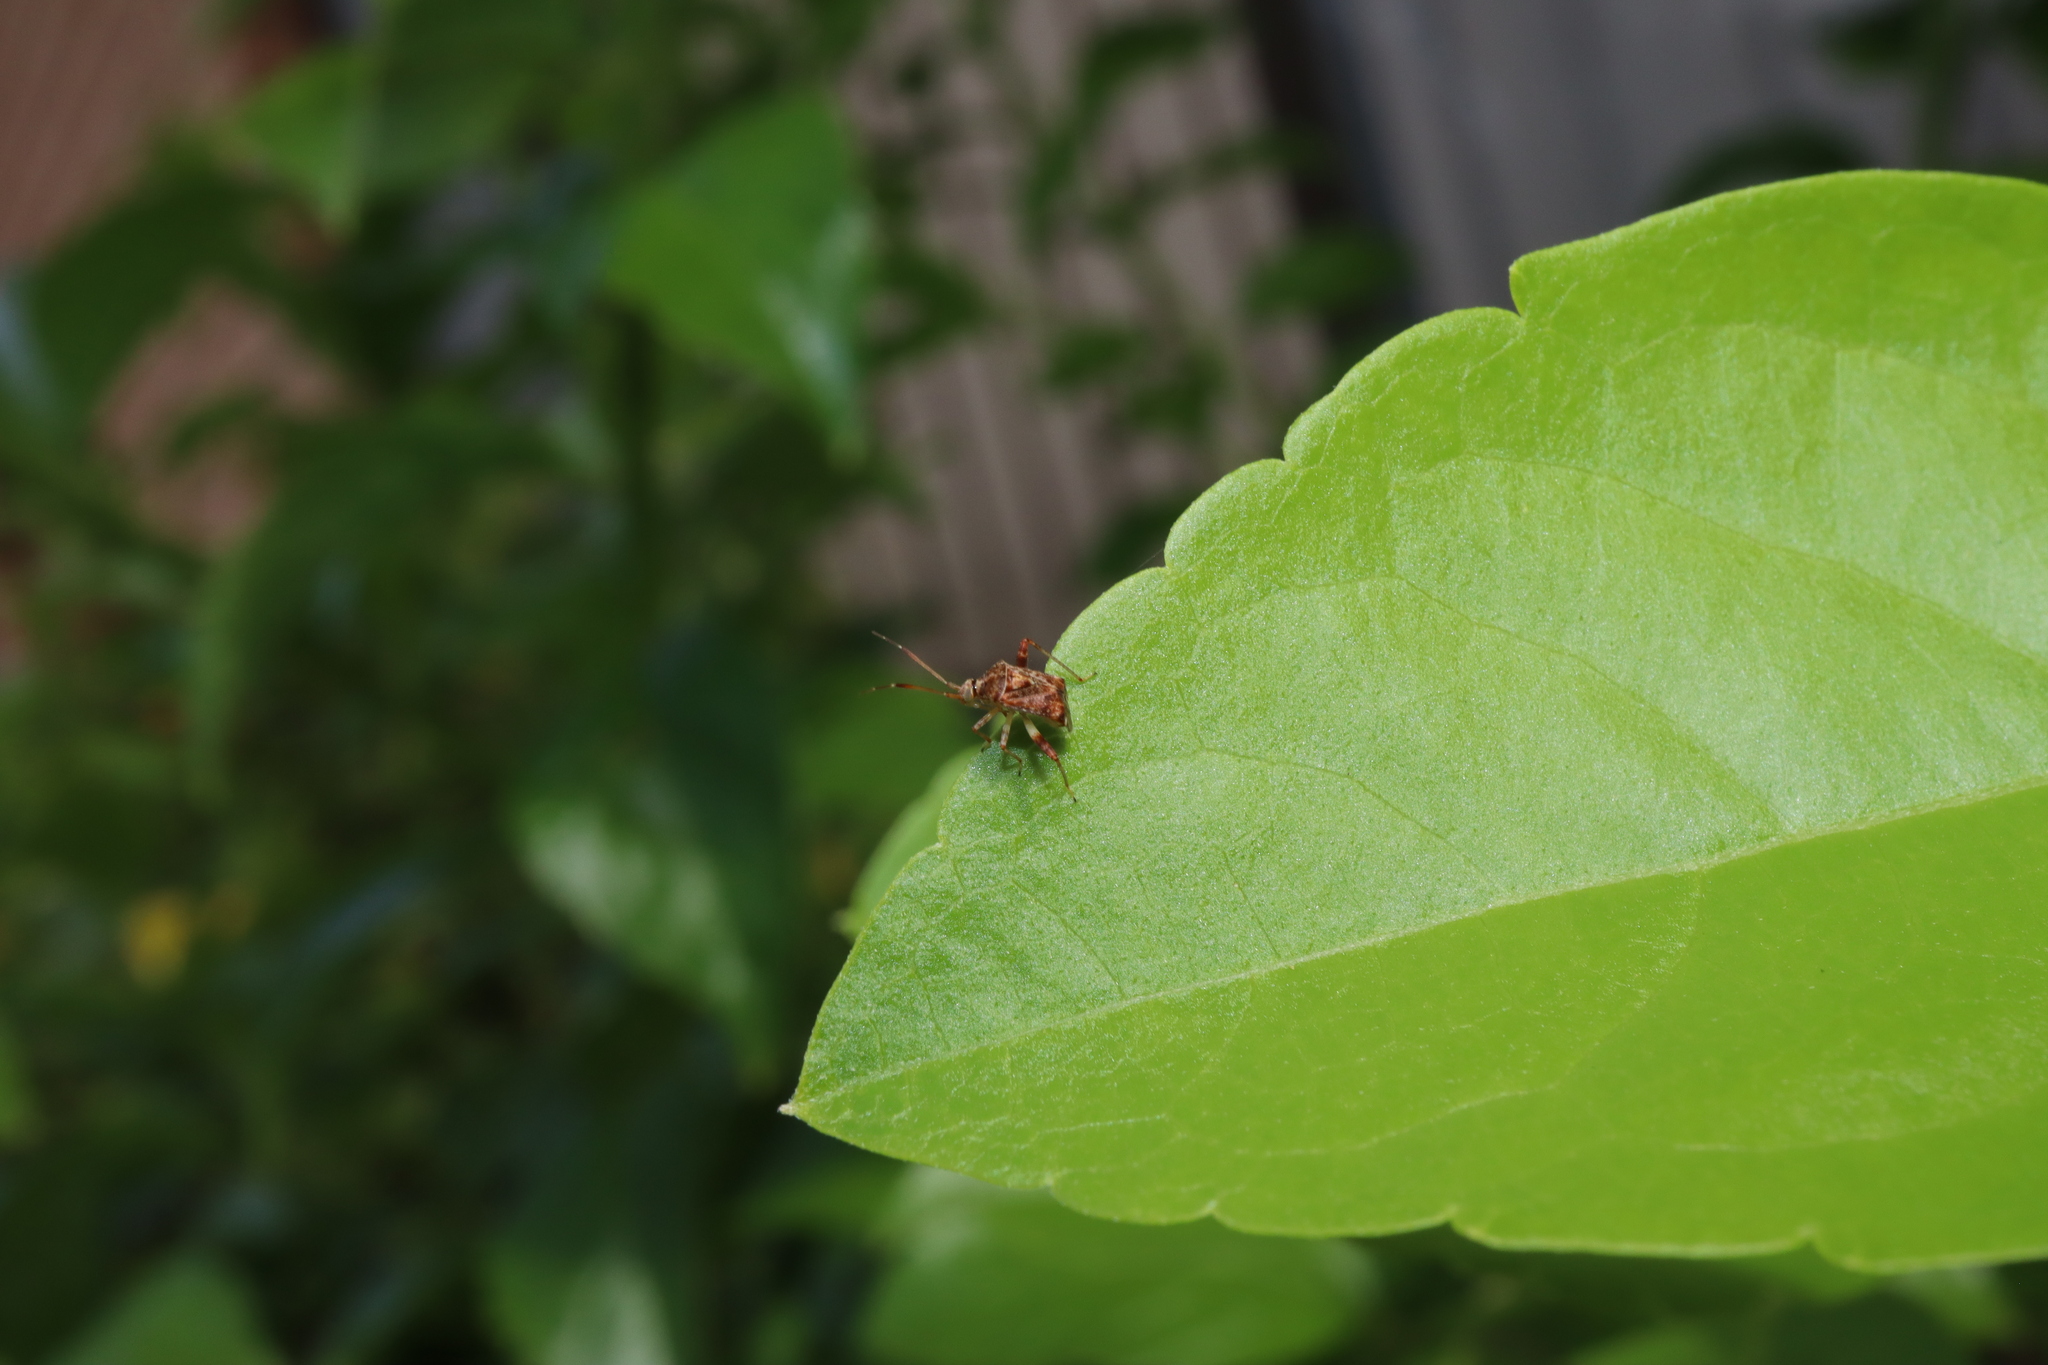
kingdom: Animalia
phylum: Arthropoda
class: Insecta
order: Hemiptera
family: Miridae
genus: Sidnia
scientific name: Sidnia kinbergi
